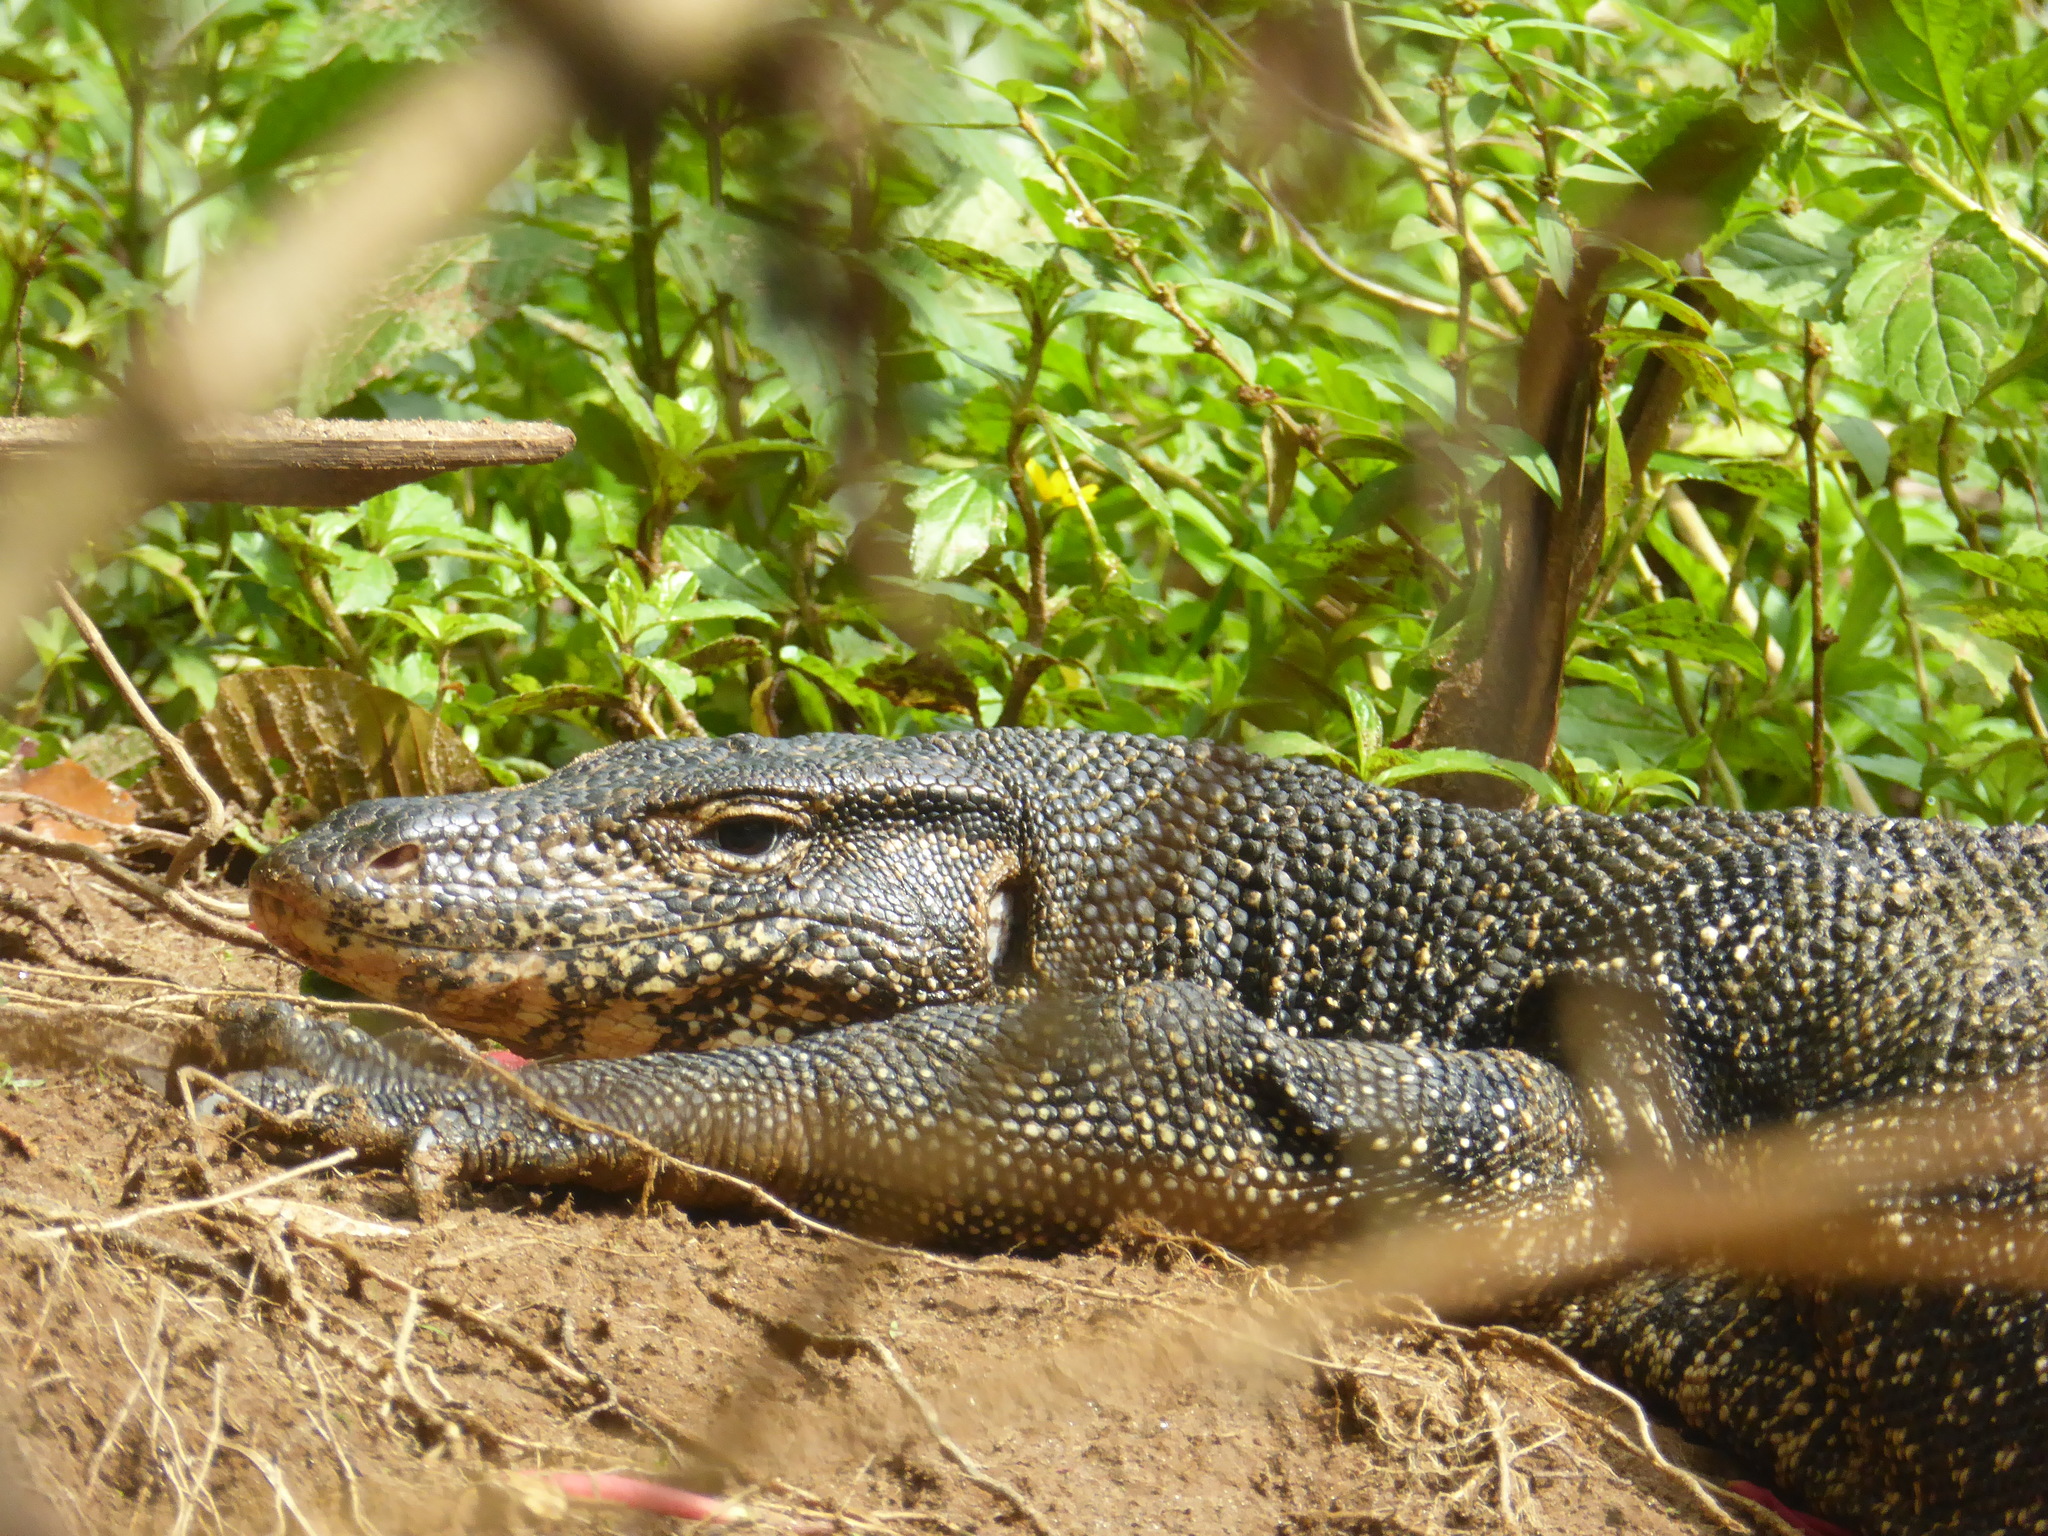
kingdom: Animalia
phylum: Chordata
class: Squamata
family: Varanidae
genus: Varanus
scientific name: Varanus salvator
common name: Common water monitor
